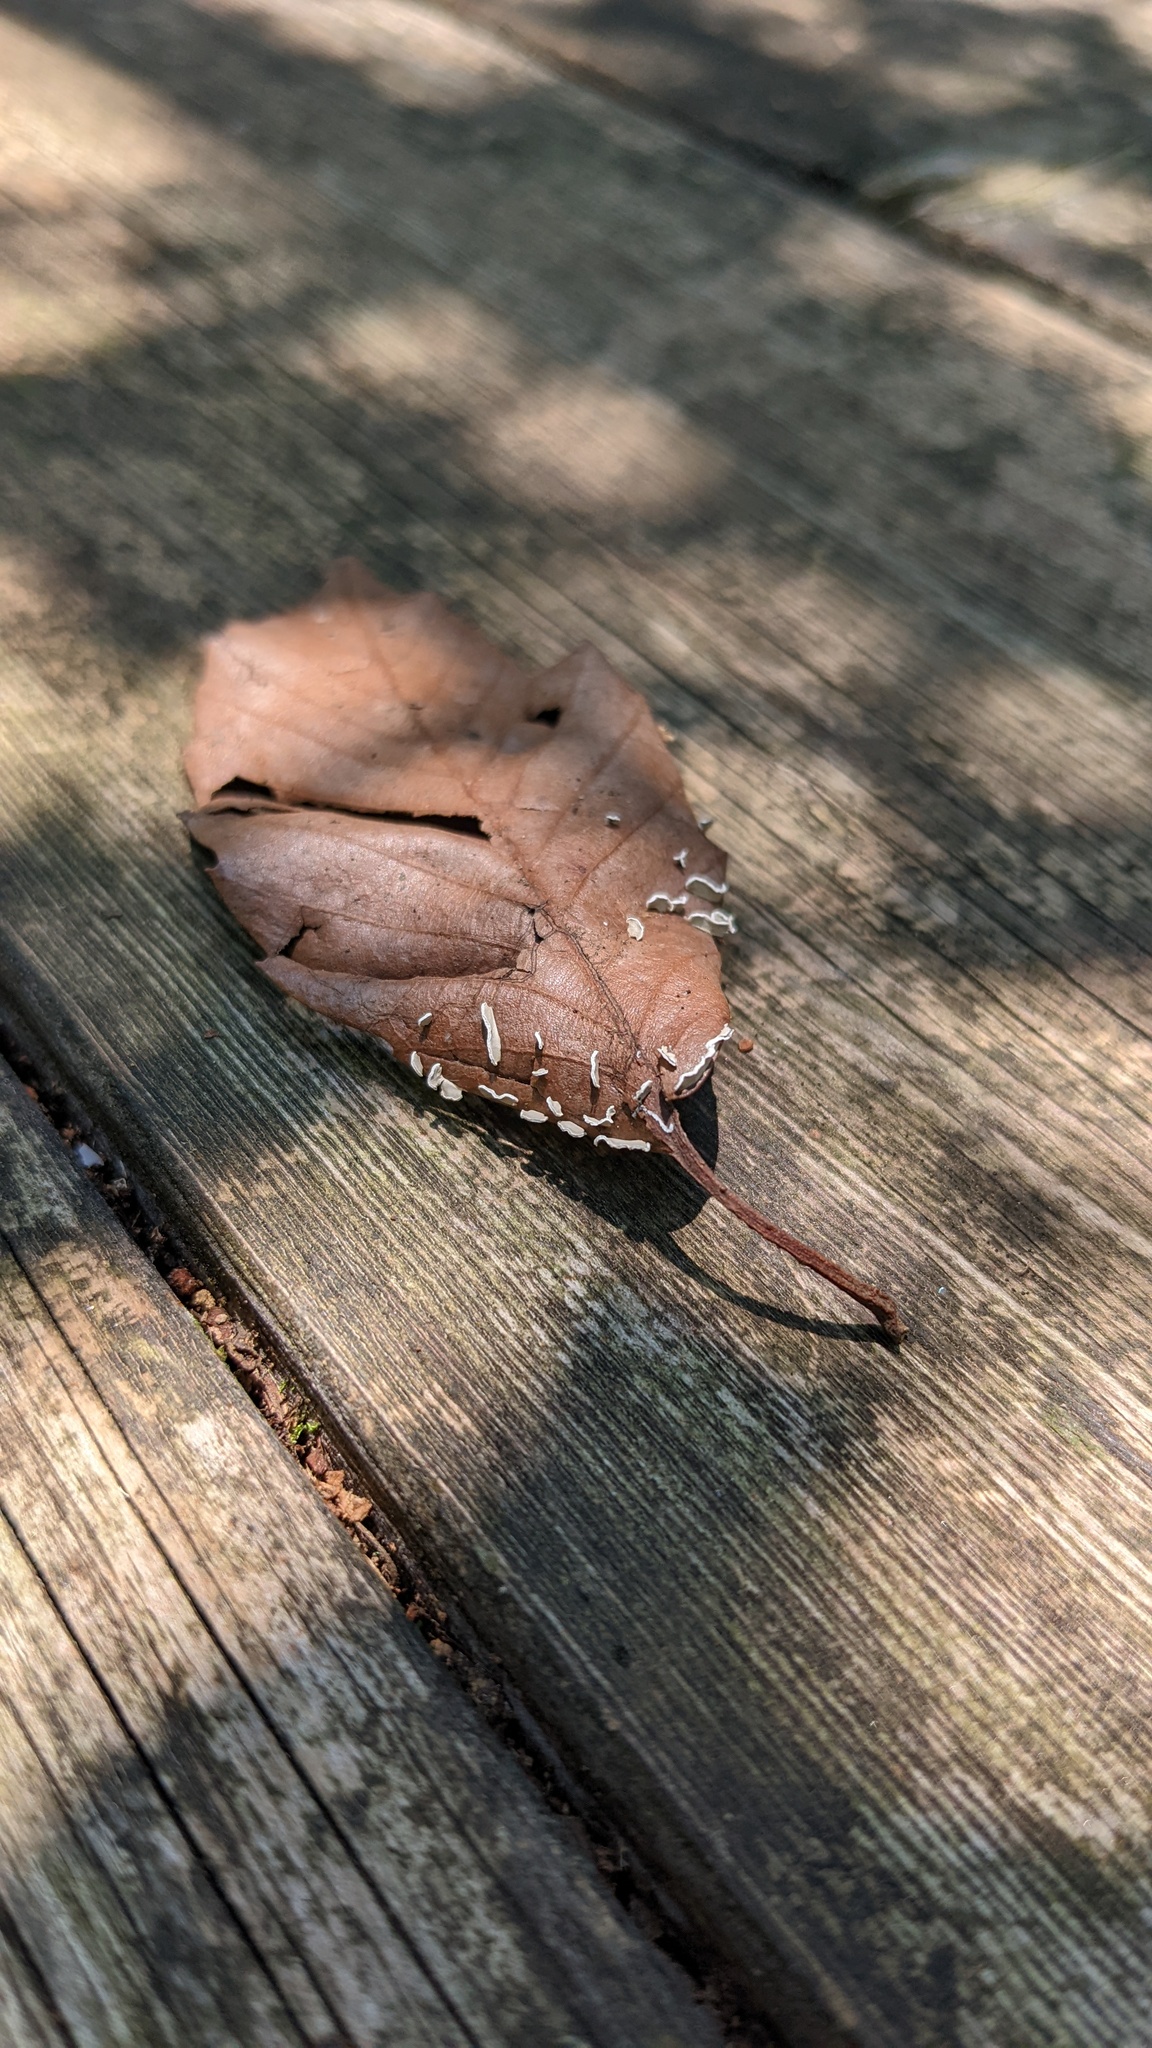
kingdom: Protozoa
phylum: Mycetozoa
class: Myxomycetes
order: Physarales
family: Physaraceae
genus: Physarum
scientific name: Physarum bivalve
